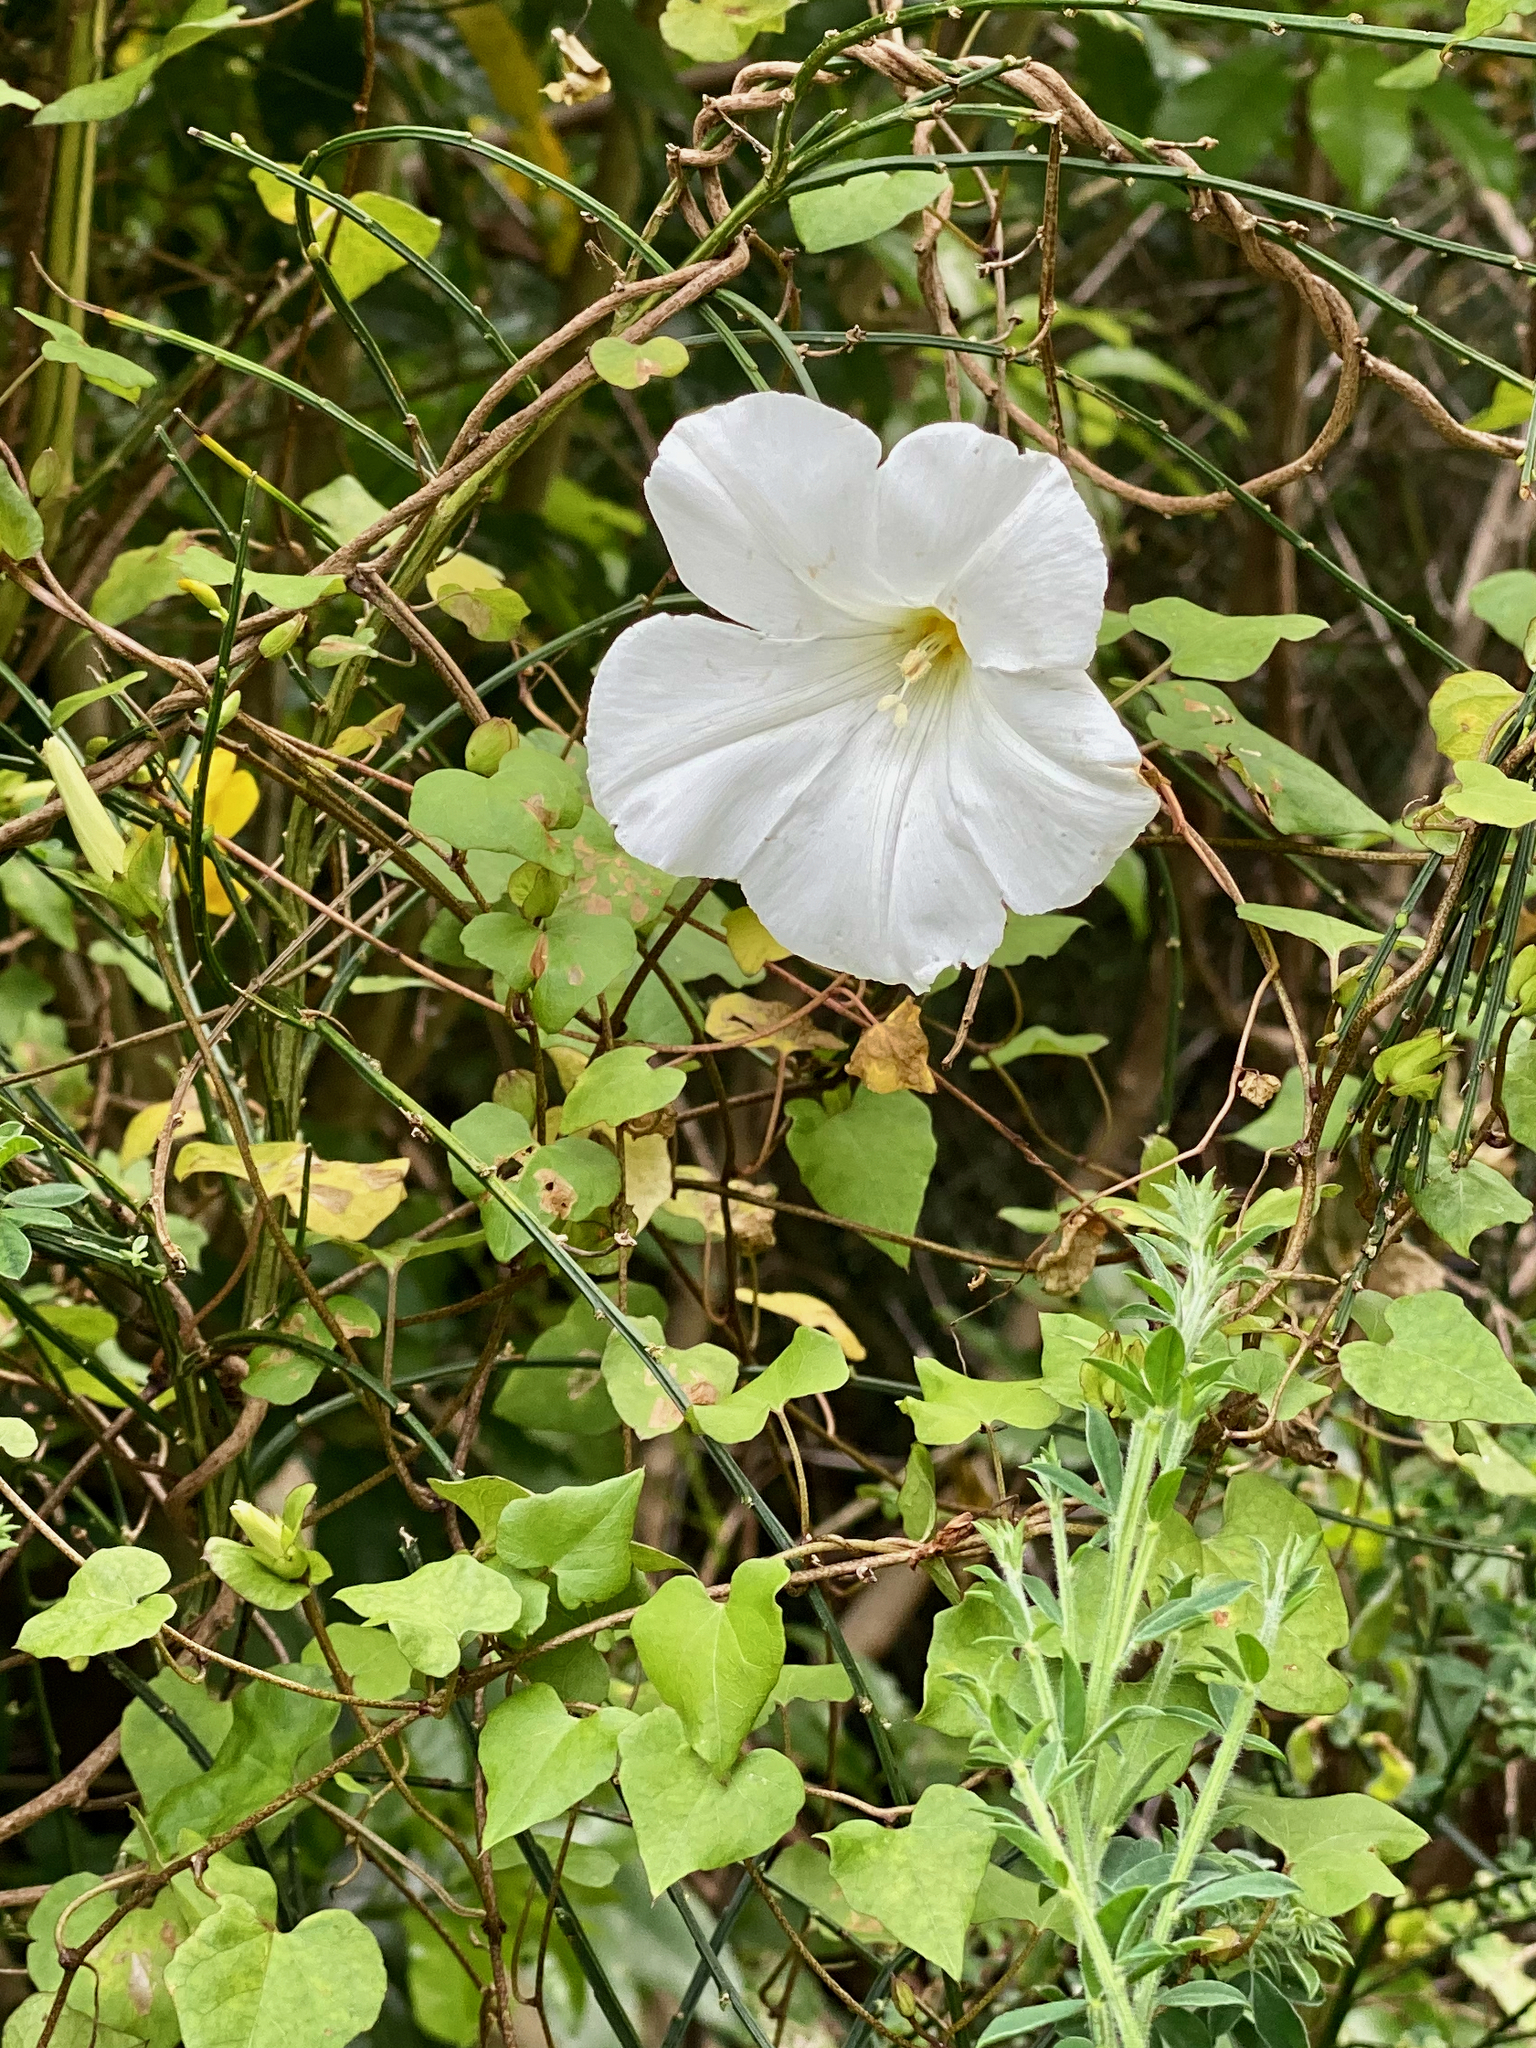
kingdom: Plantae
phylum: Tracheophyta
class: Magnoliopsida
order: Solanales
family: Convolvulaceae
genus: Calystegia
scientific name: Calystegia tuguriorum
